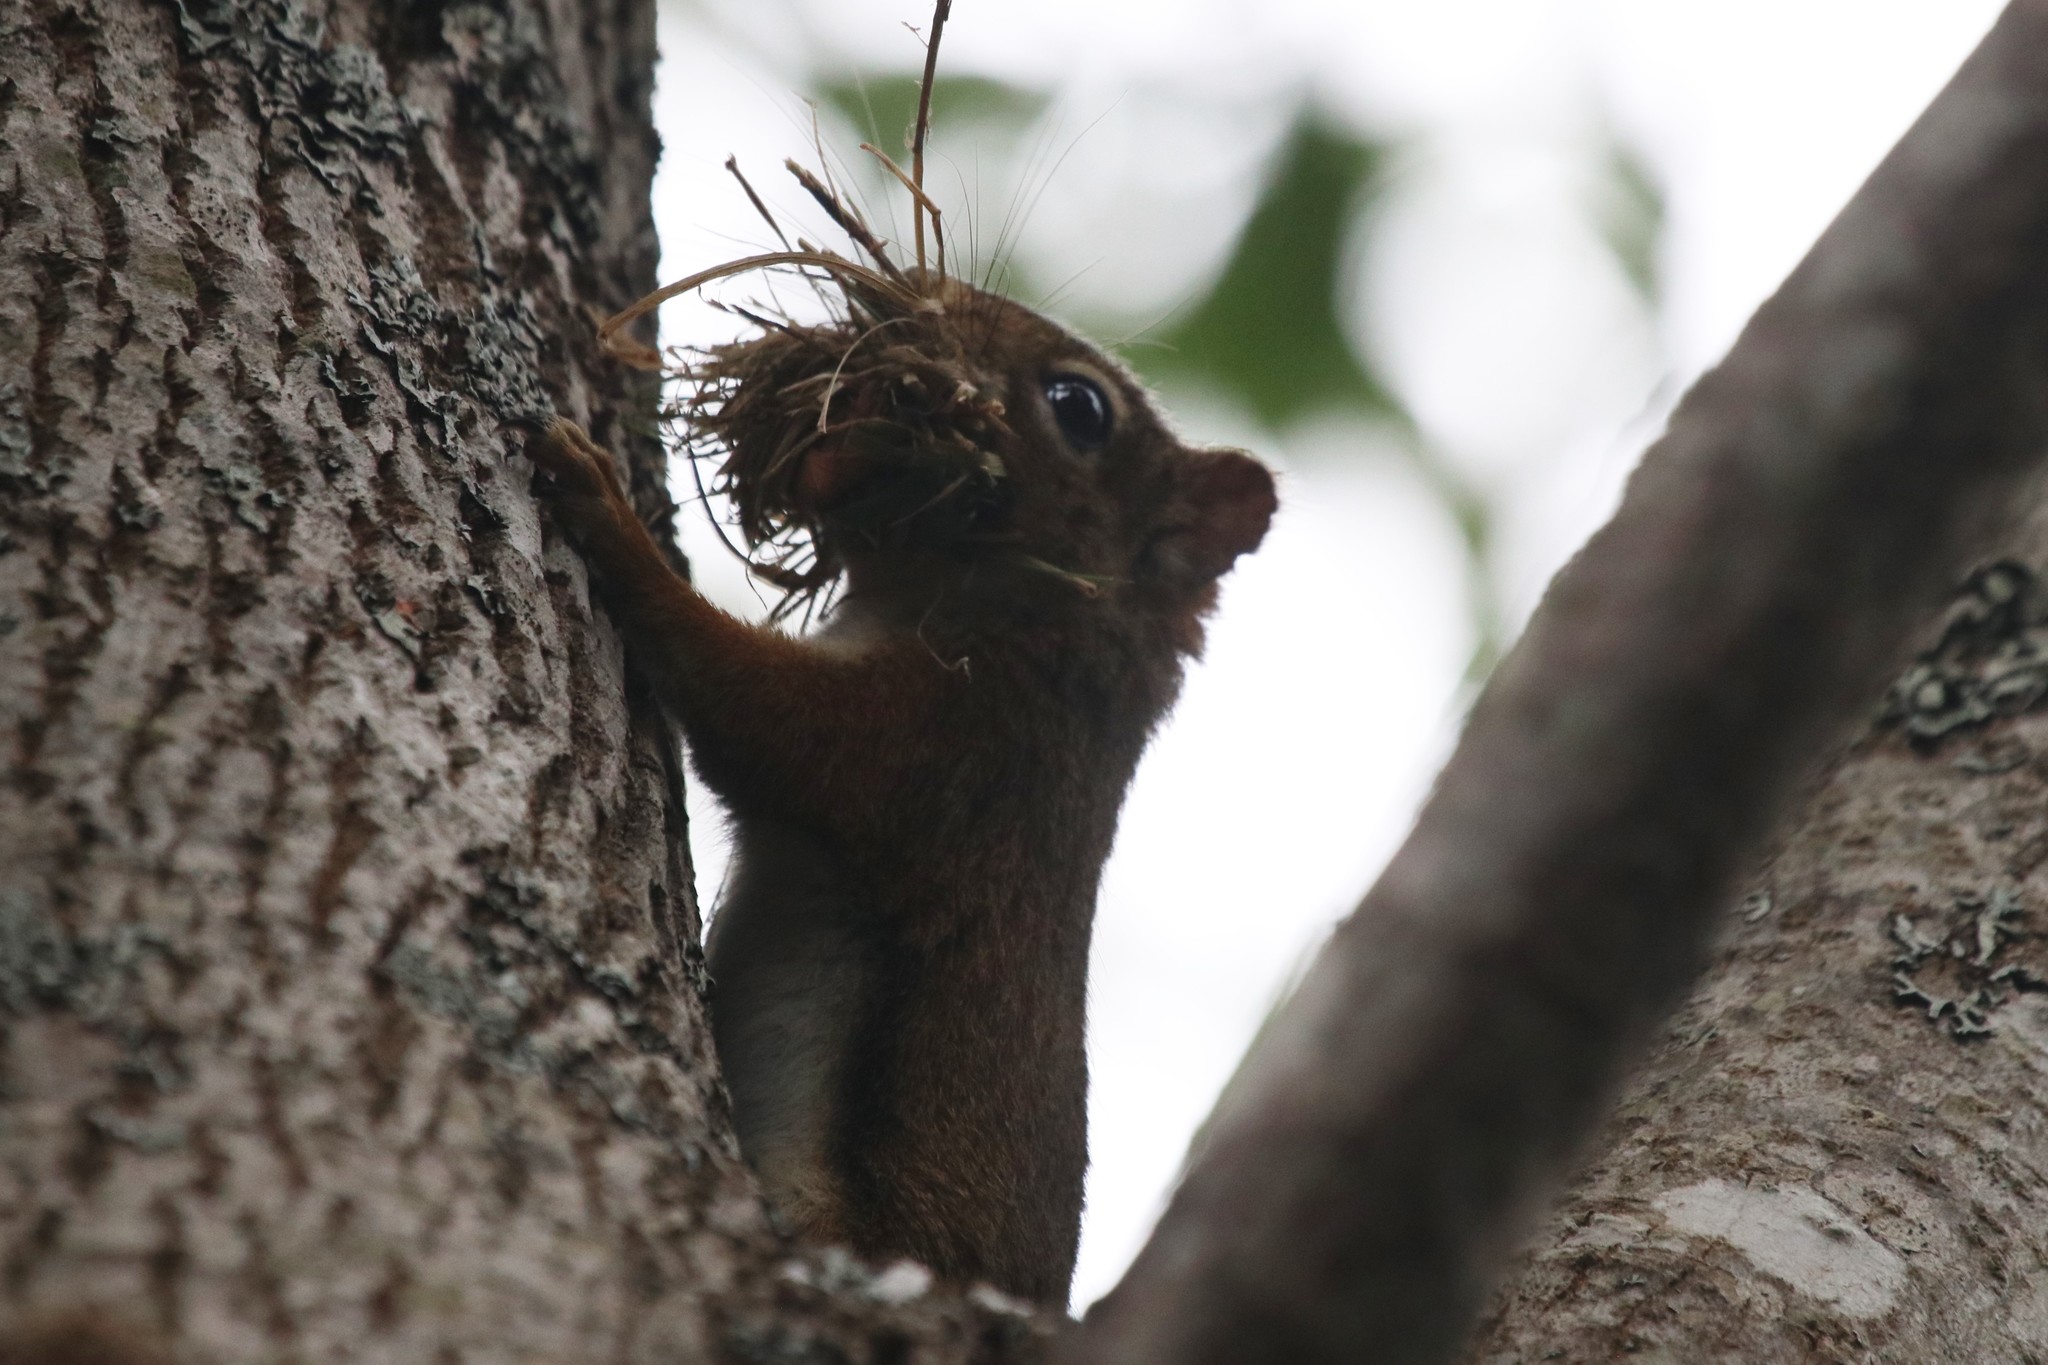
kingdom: Animalia
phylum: Chordata
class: Mammalia
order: Rodentia
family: Sciuridae
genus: Tamiasciurus
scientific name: Tamiasciurus hudsonicus
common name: Red squirrel
